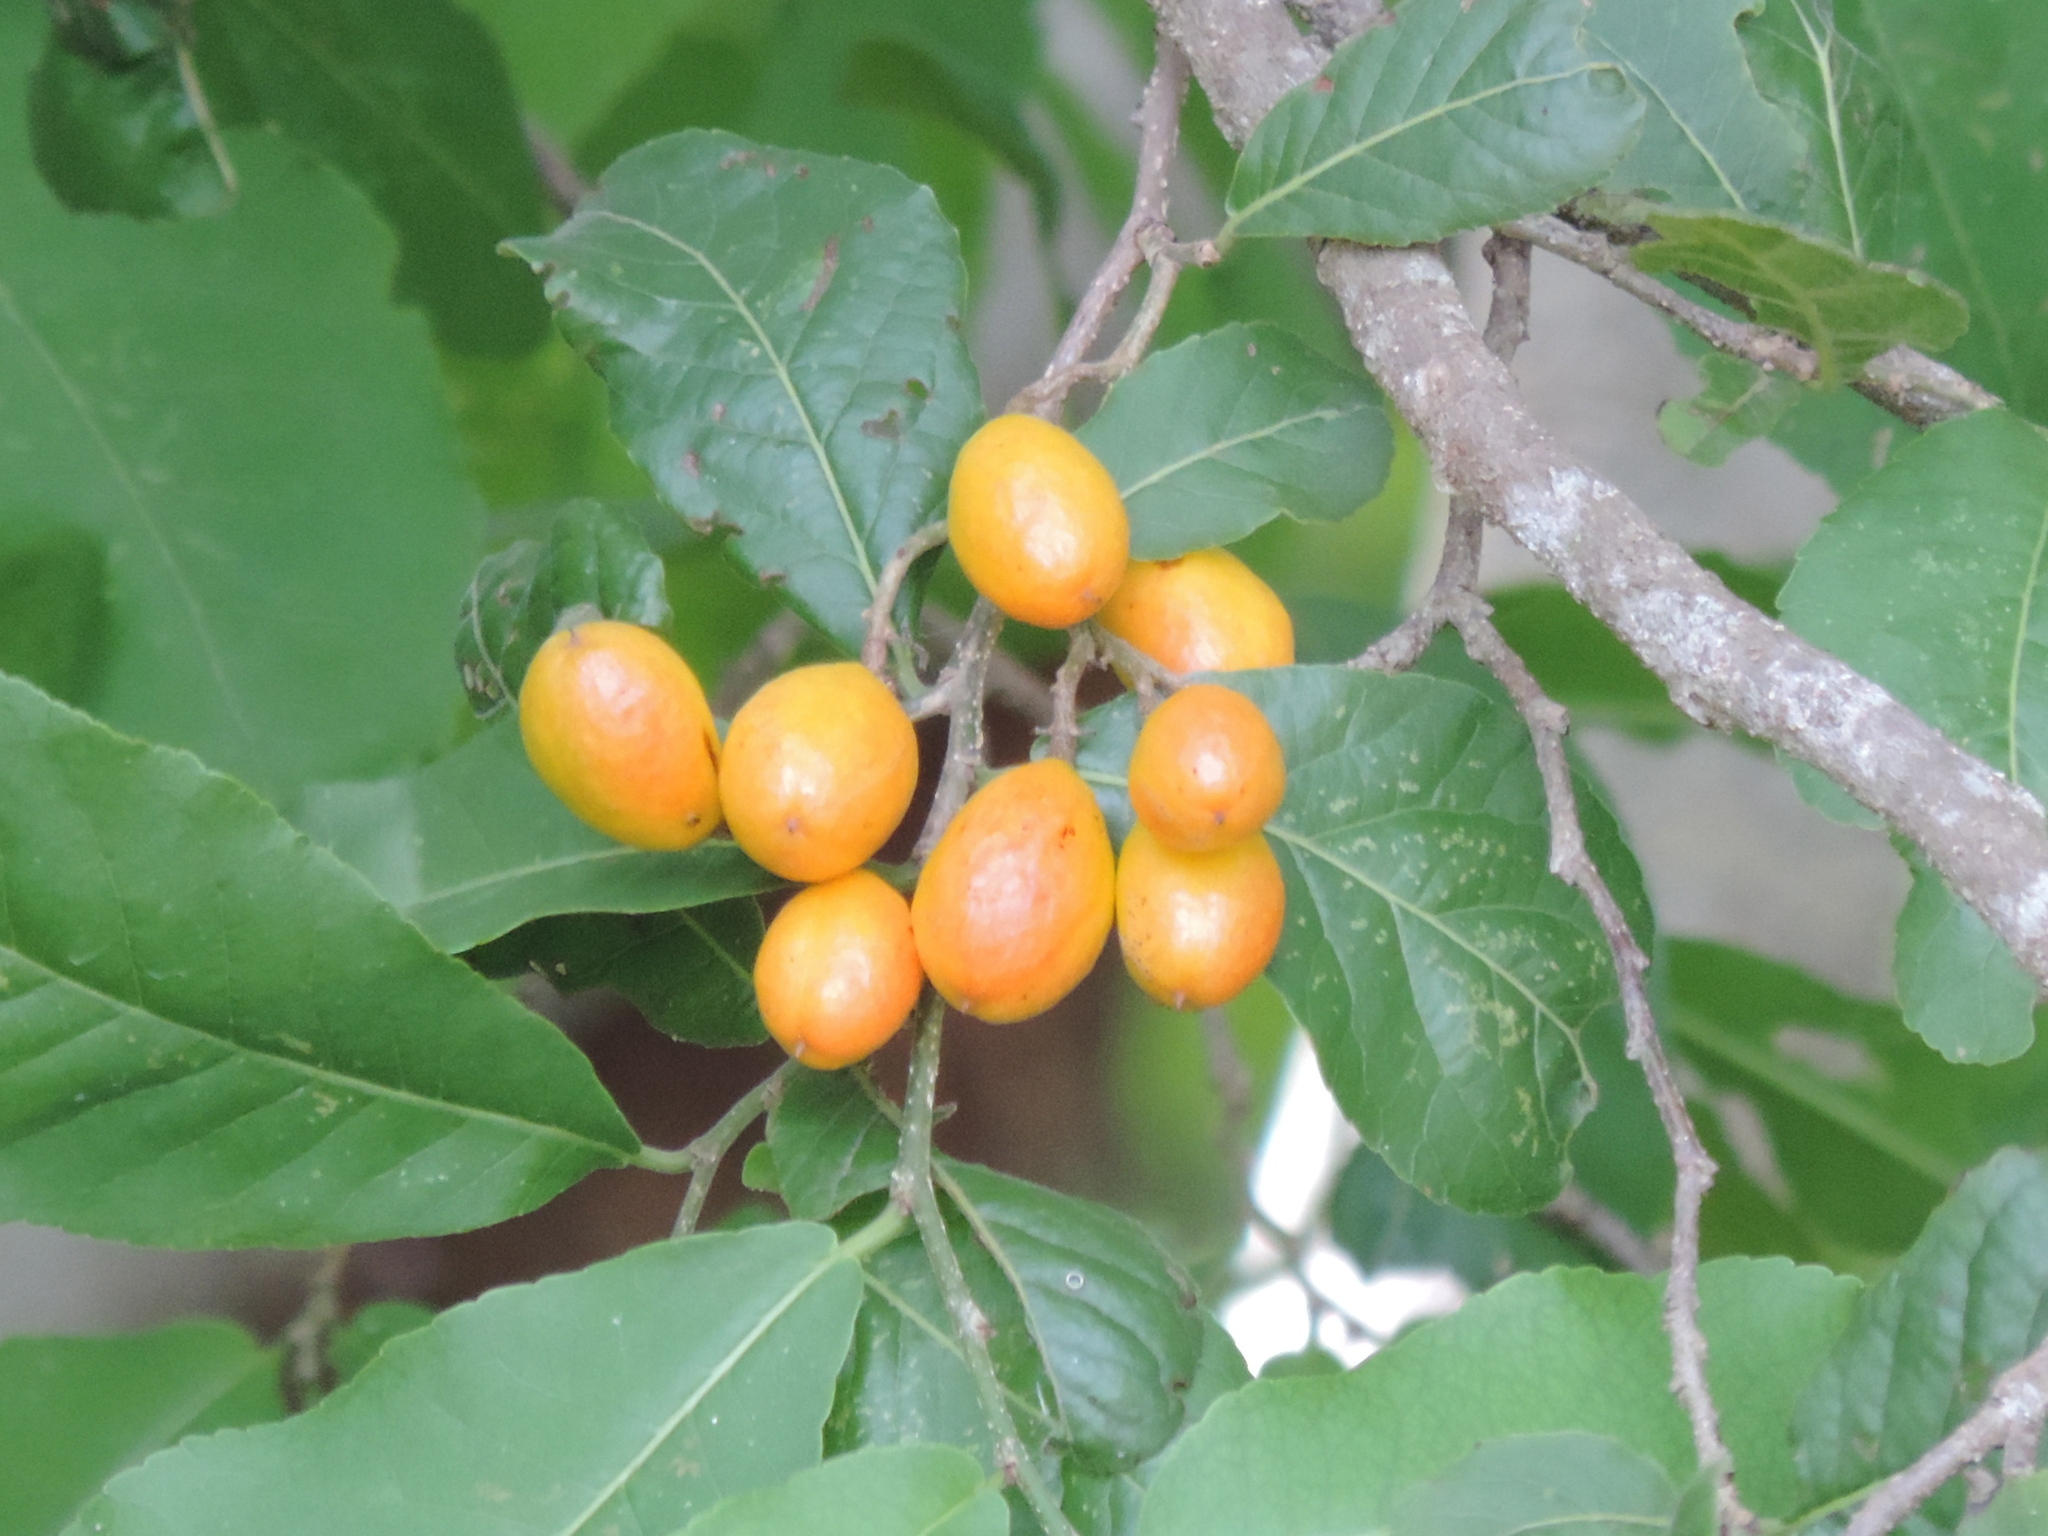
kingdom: Plantae
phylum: Tracheophyta
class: Magnoliopsida
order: Malpighiales
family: Salicaceae
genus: Casearia
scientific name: Casearia corymbosa
